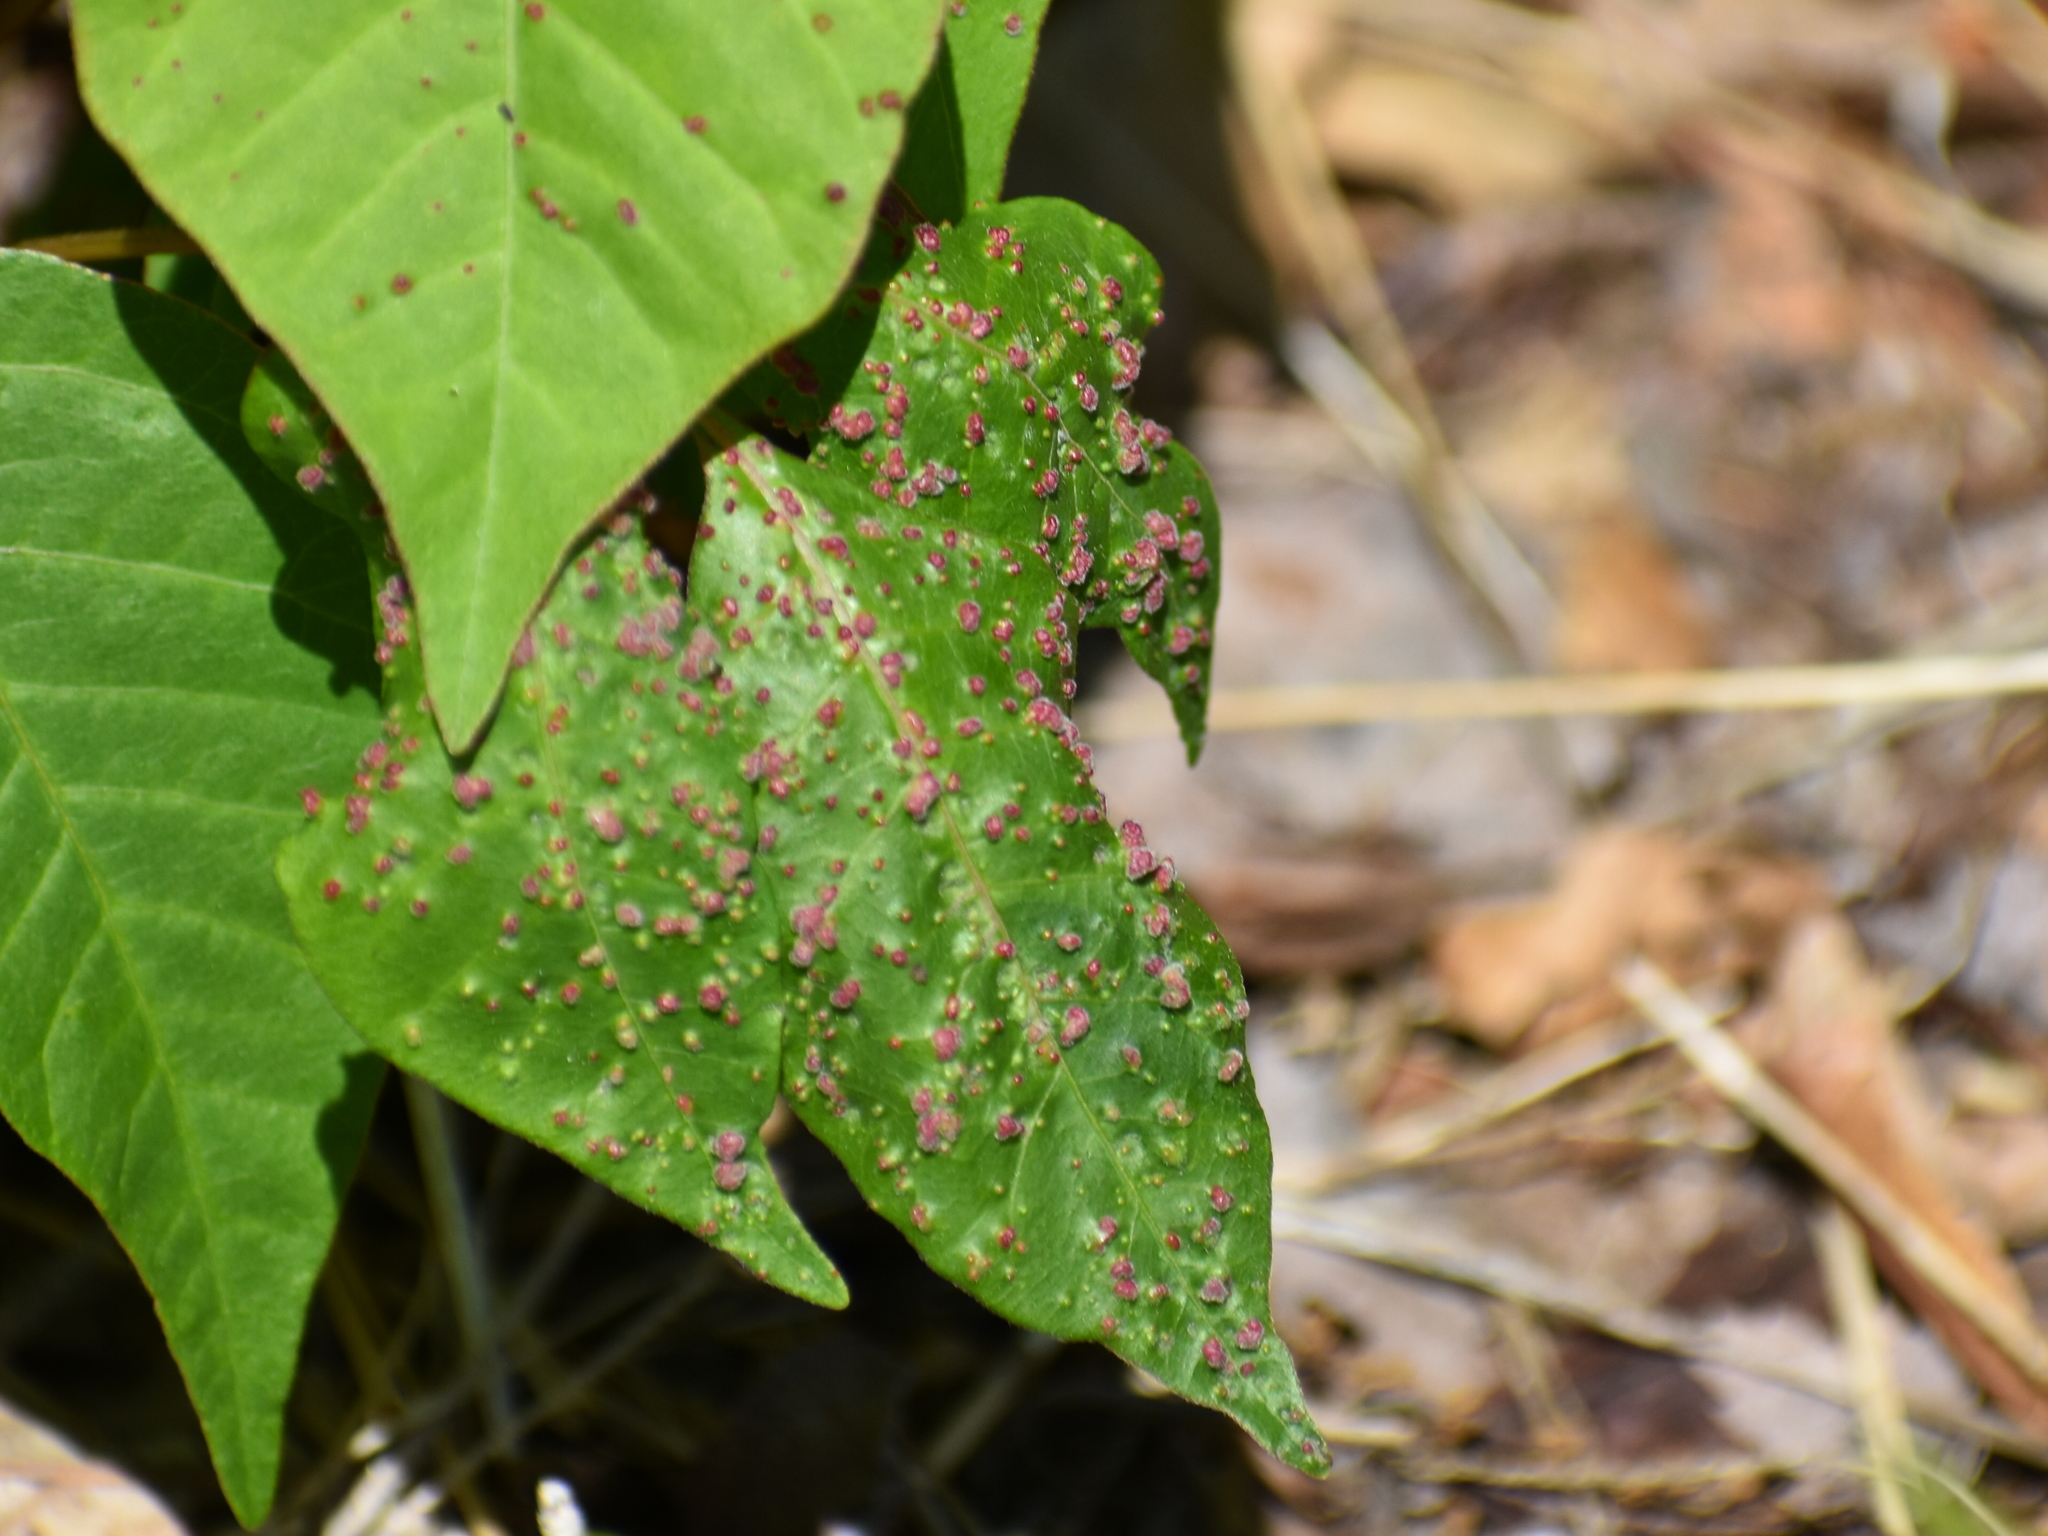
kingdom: Animalia
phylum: Arthropoda
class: Arachnida
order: Trombidiformes
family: Eriophyidae
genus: Aculops
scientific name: Aculops
